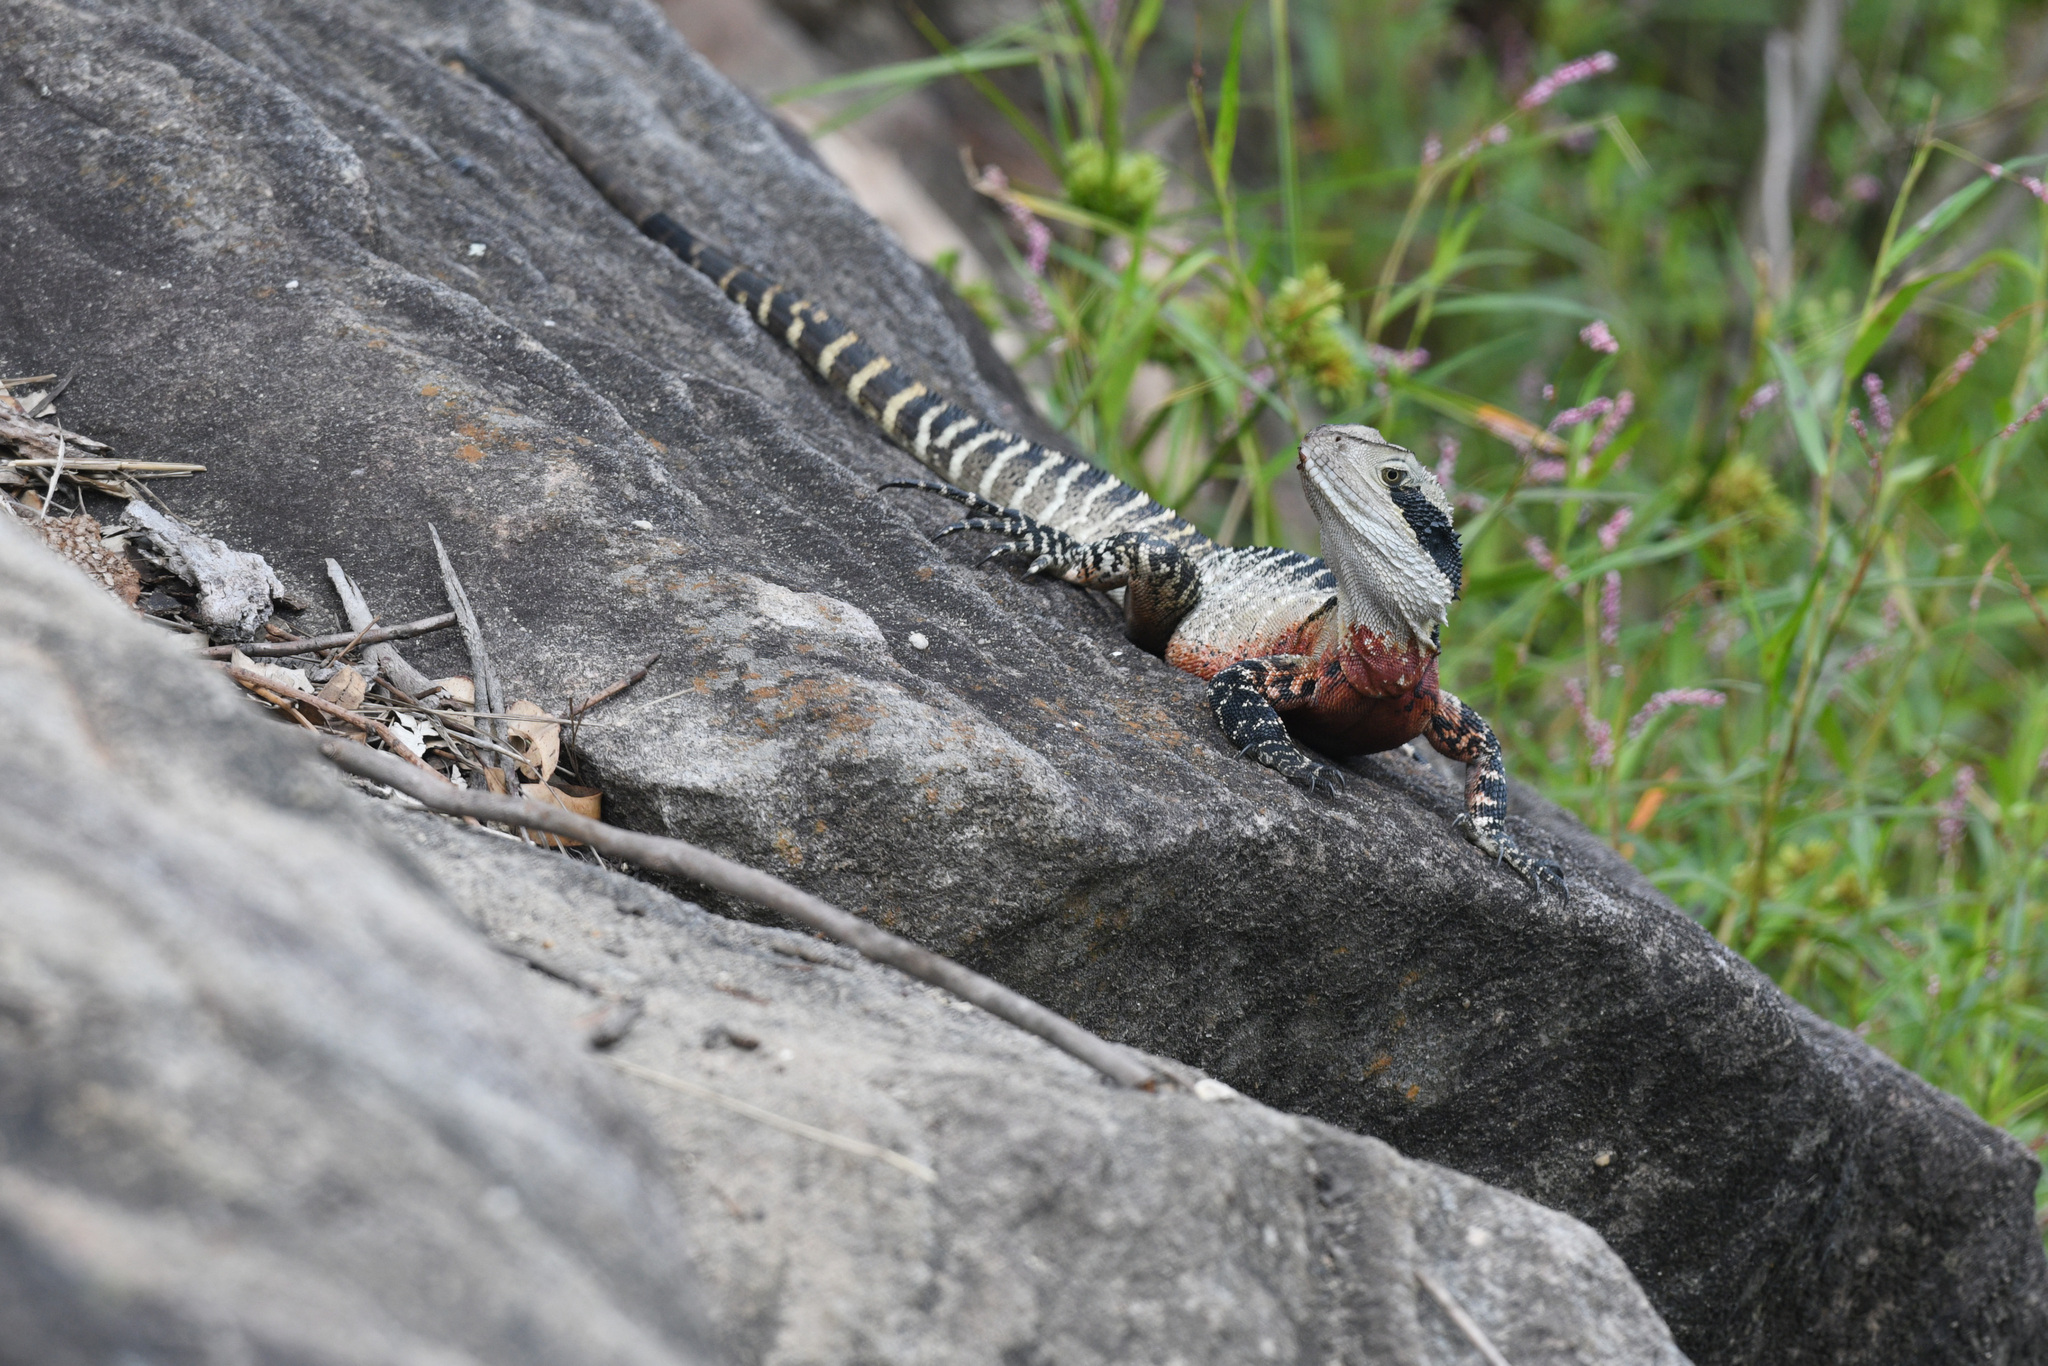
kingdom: Animalia
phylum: Chordata
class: Squamata
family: Agamidae
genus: Intellagama
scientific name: Intellagama lesueurii
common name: Eastern water dragon
